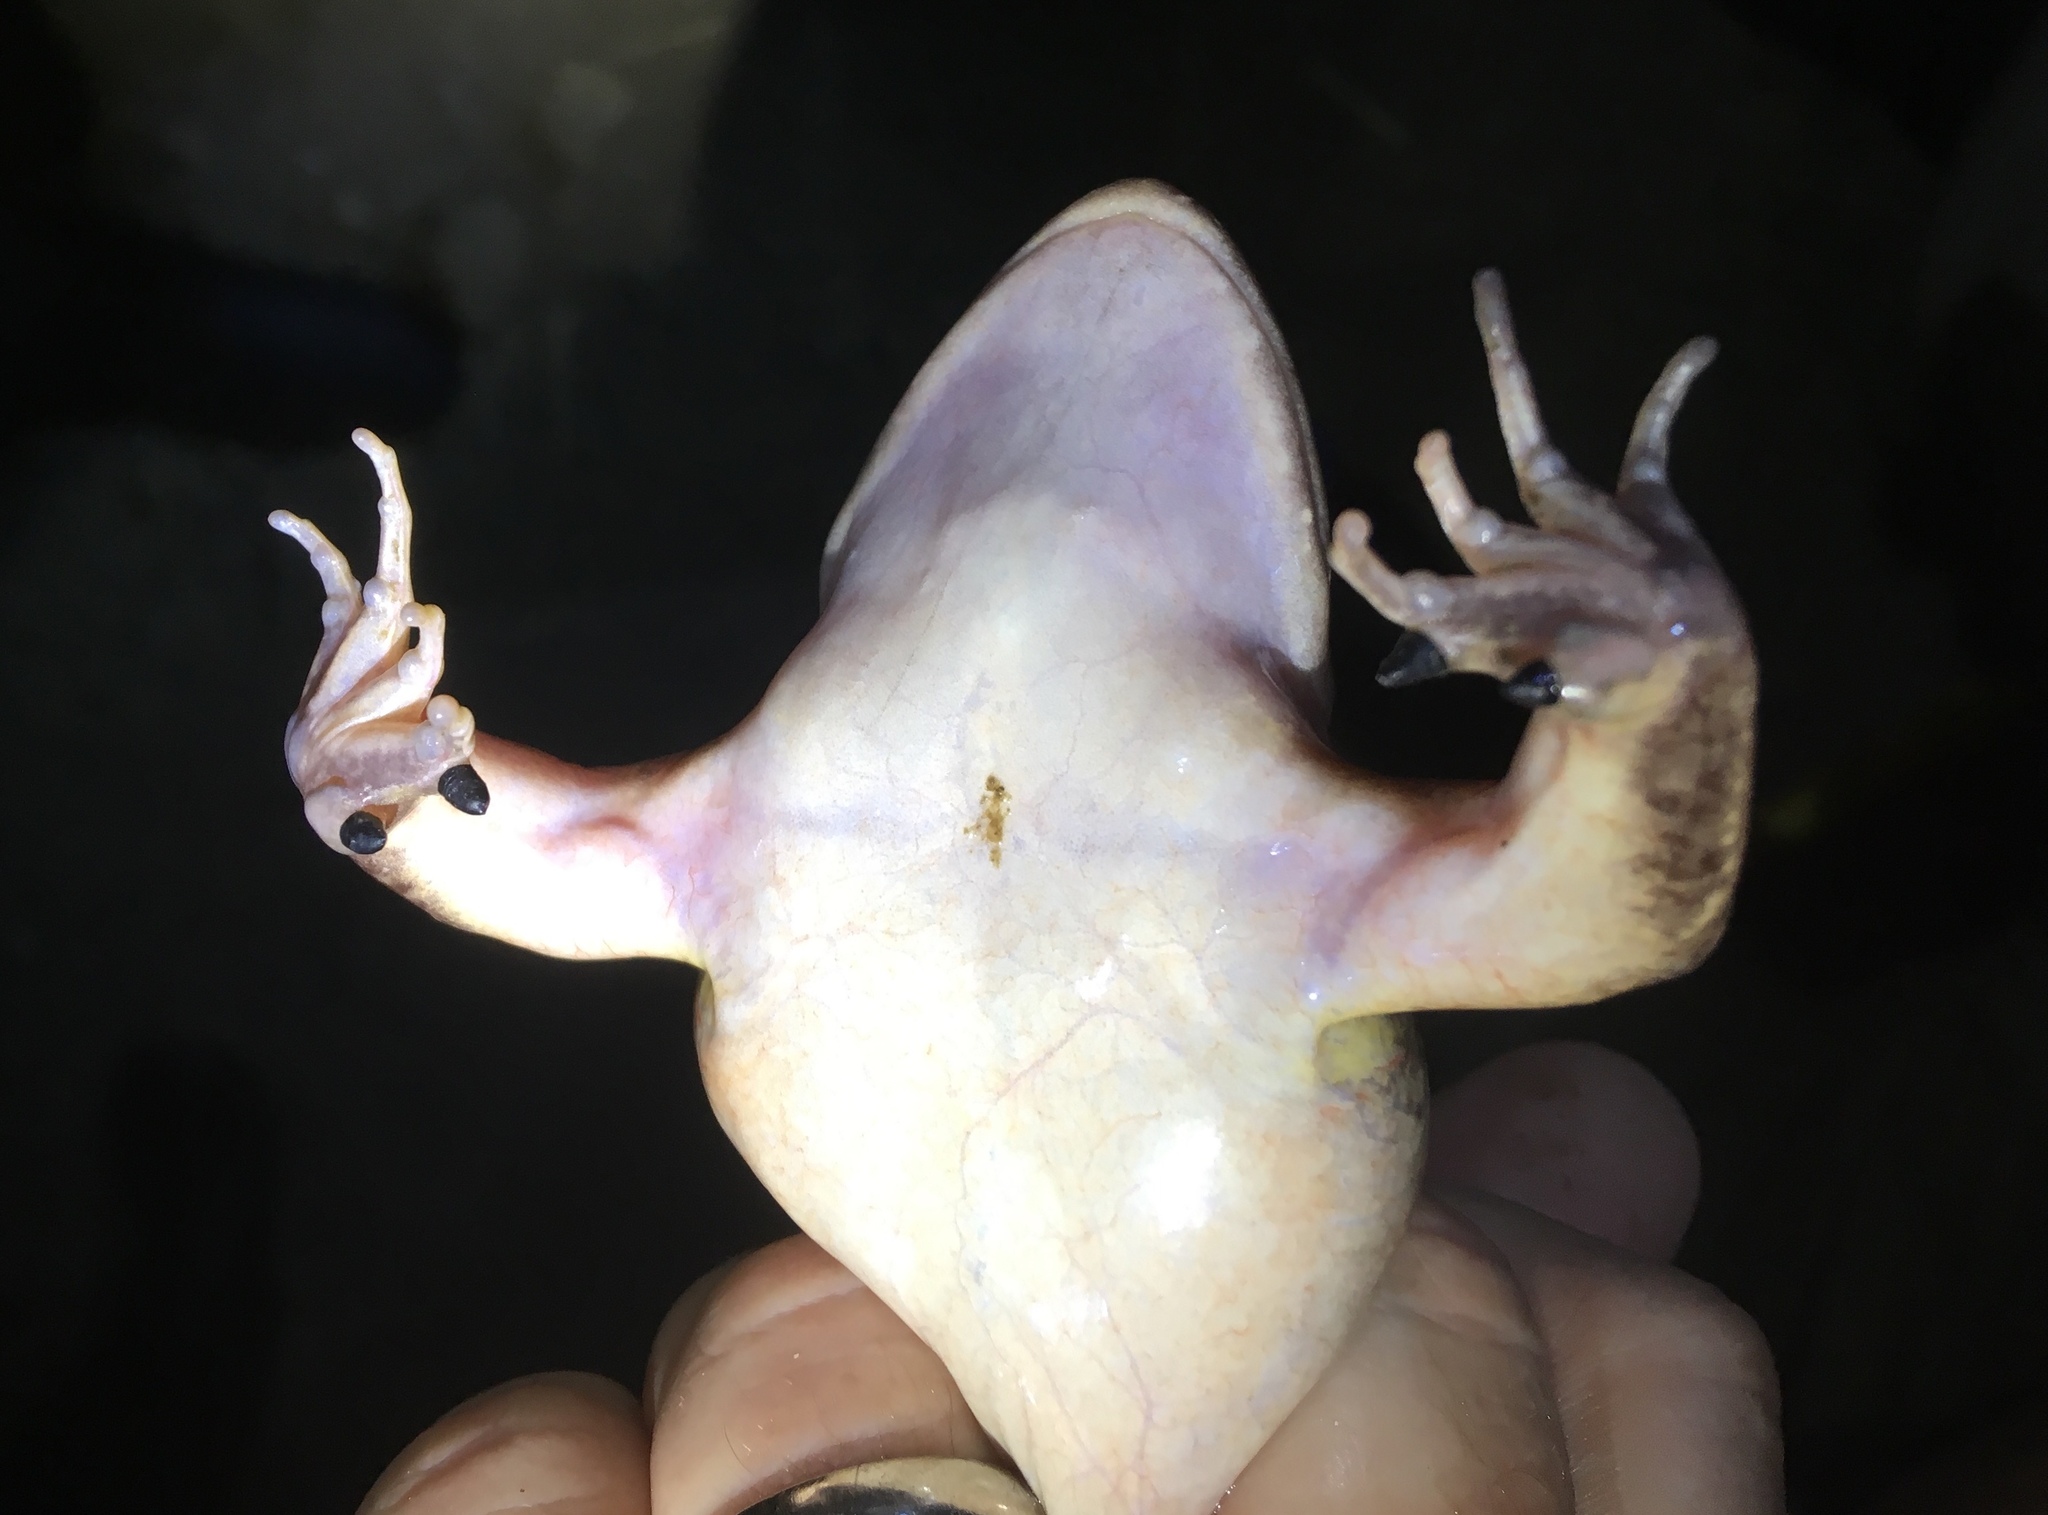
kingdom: Animalia
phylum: Chordata
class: Amphibia
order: Anura
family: Leptodactylidae
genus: Leptodactylus
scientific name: Leptodactylus insularum
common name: San miguel island frog
